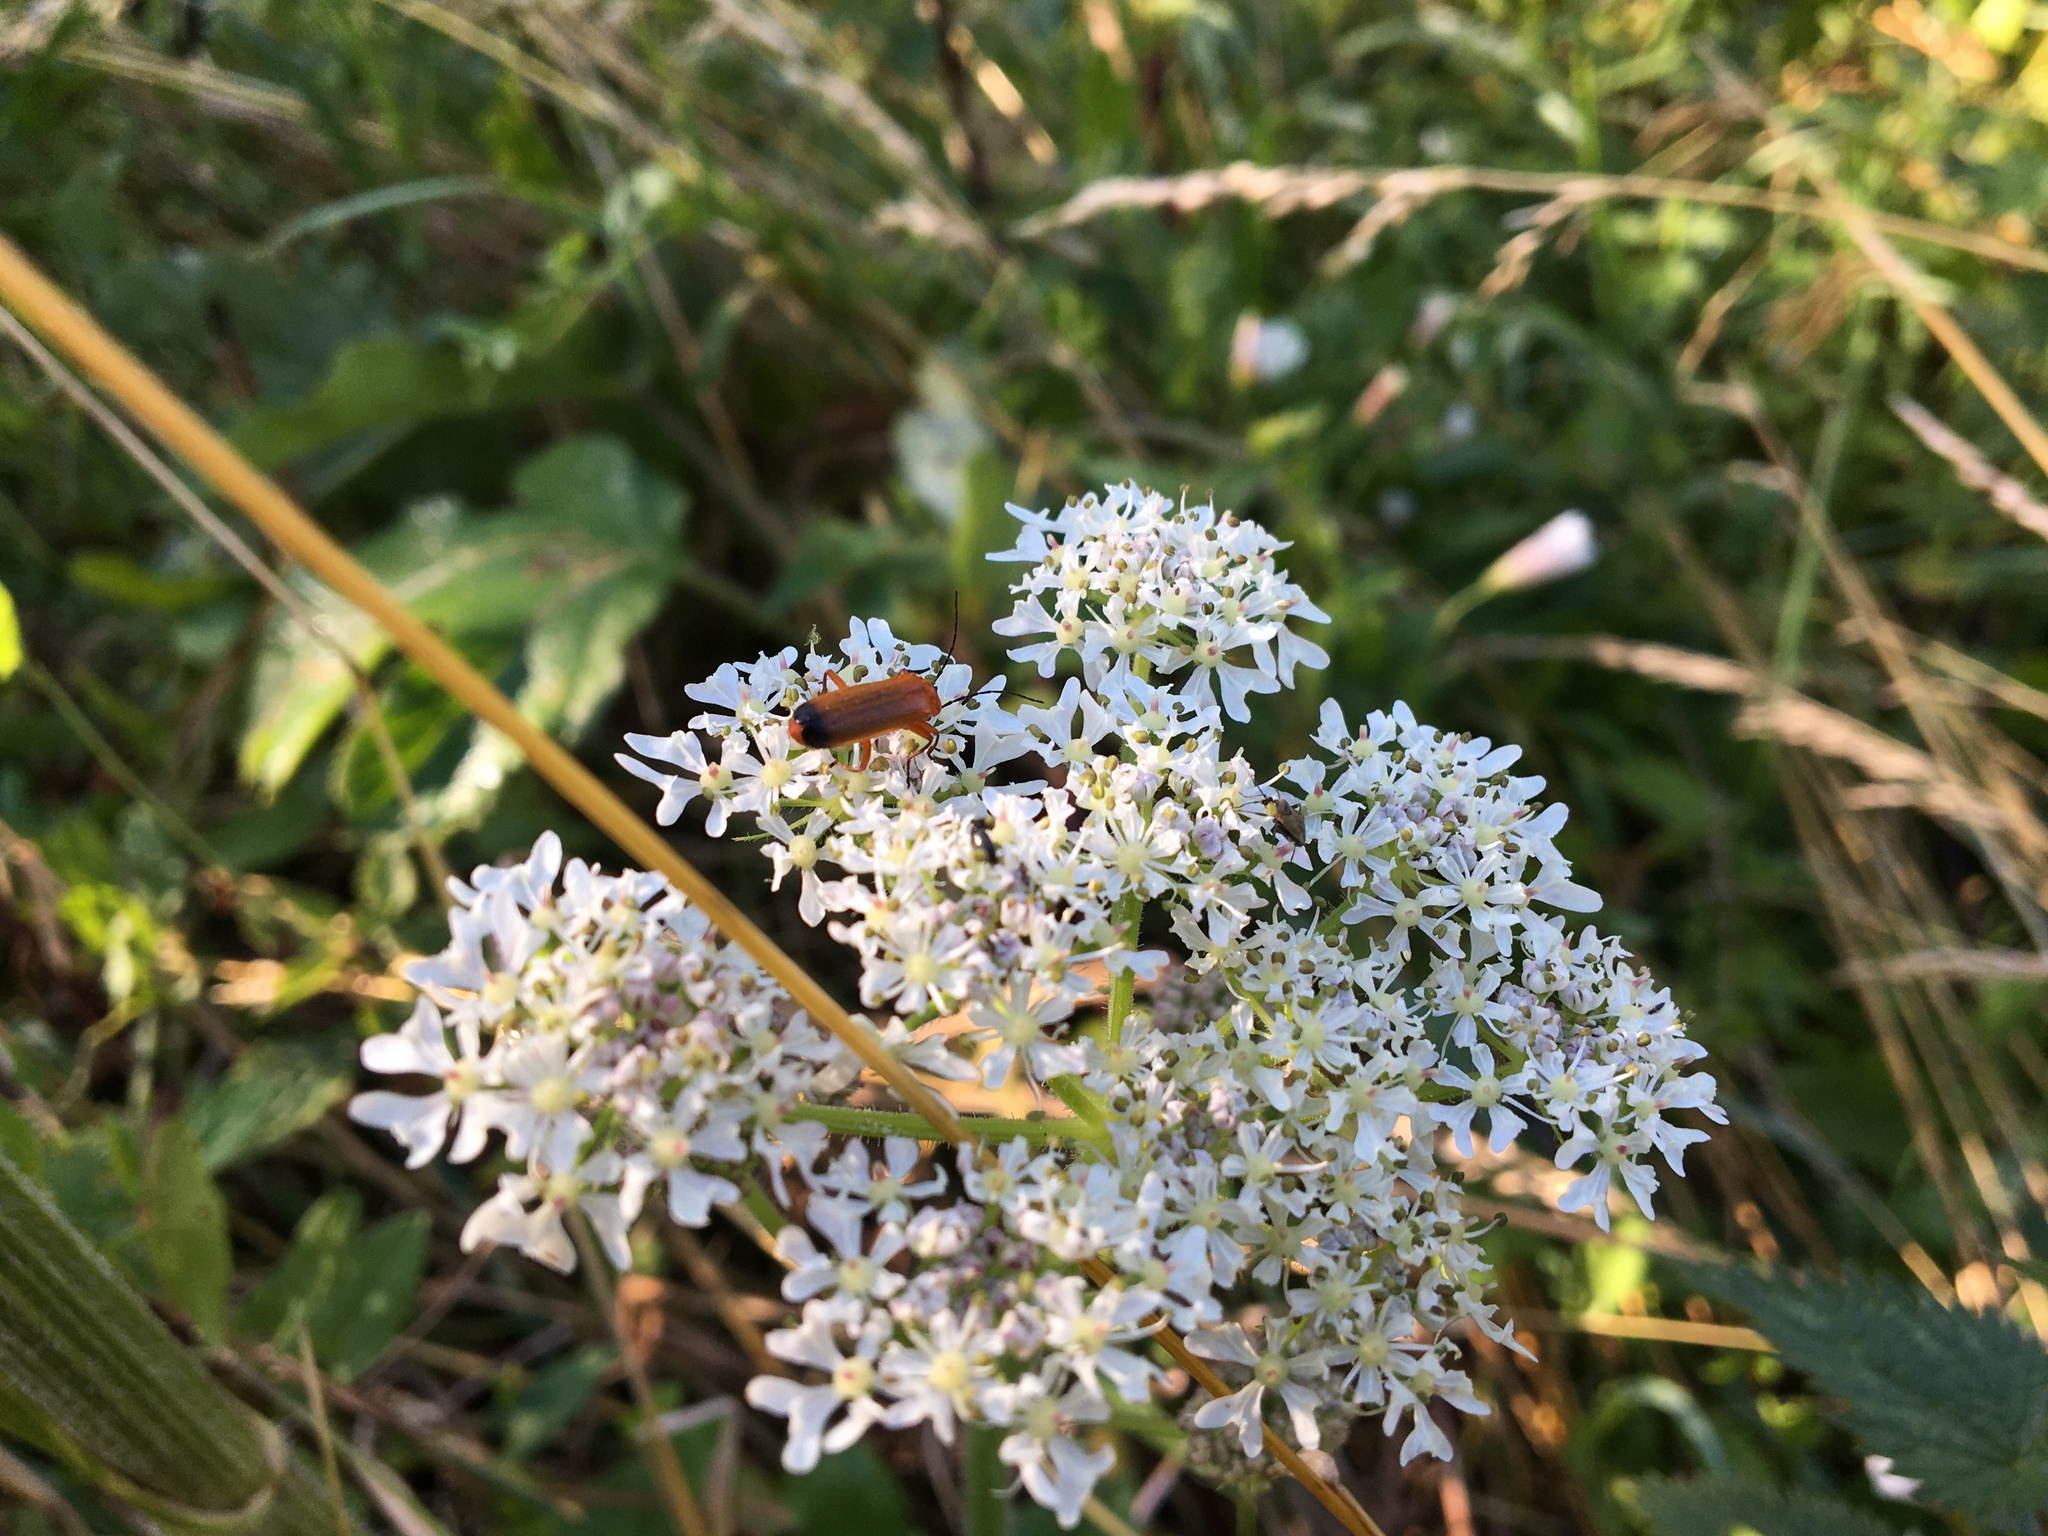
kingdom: Animalia
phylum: Arthropoda
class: Insecta
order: Coleoptera
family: Cantharidae
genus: Rhagonycha
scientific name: Rhagonycha fulva
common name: Common red soldier beetle
